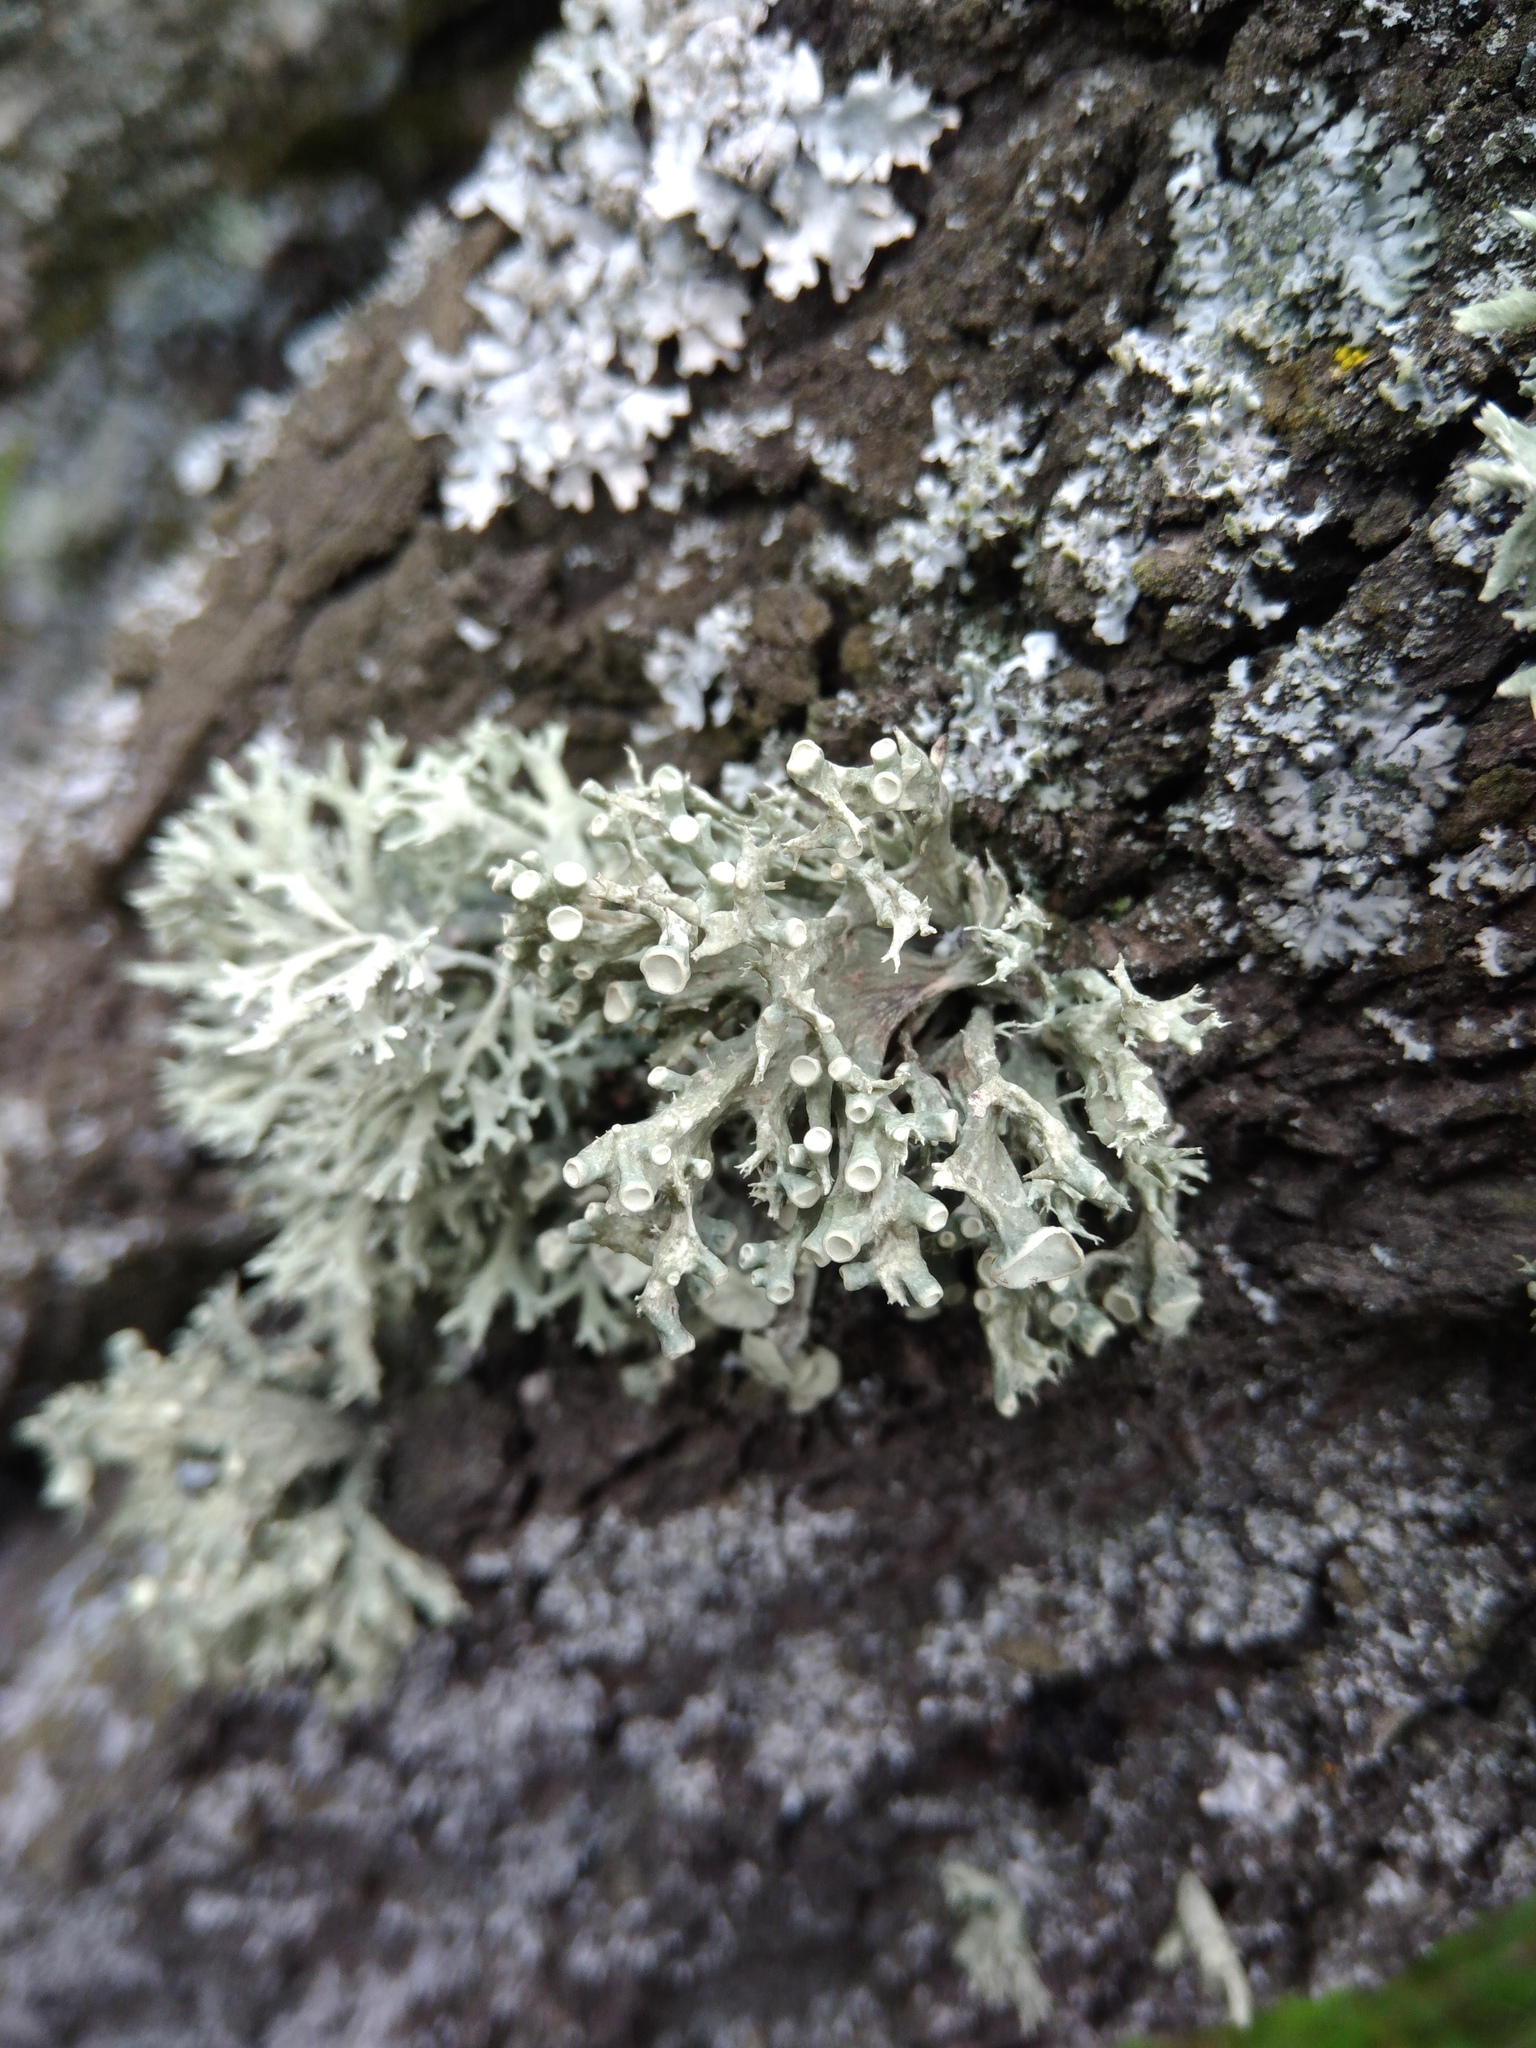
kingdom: Fungi
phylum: Ascomycota
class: Lecanoromycetes
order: Lecanorales
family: Ramalinaceae
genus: Ramalina
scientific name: Ramalina fastigiata
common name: Dotted ribbon lichen
